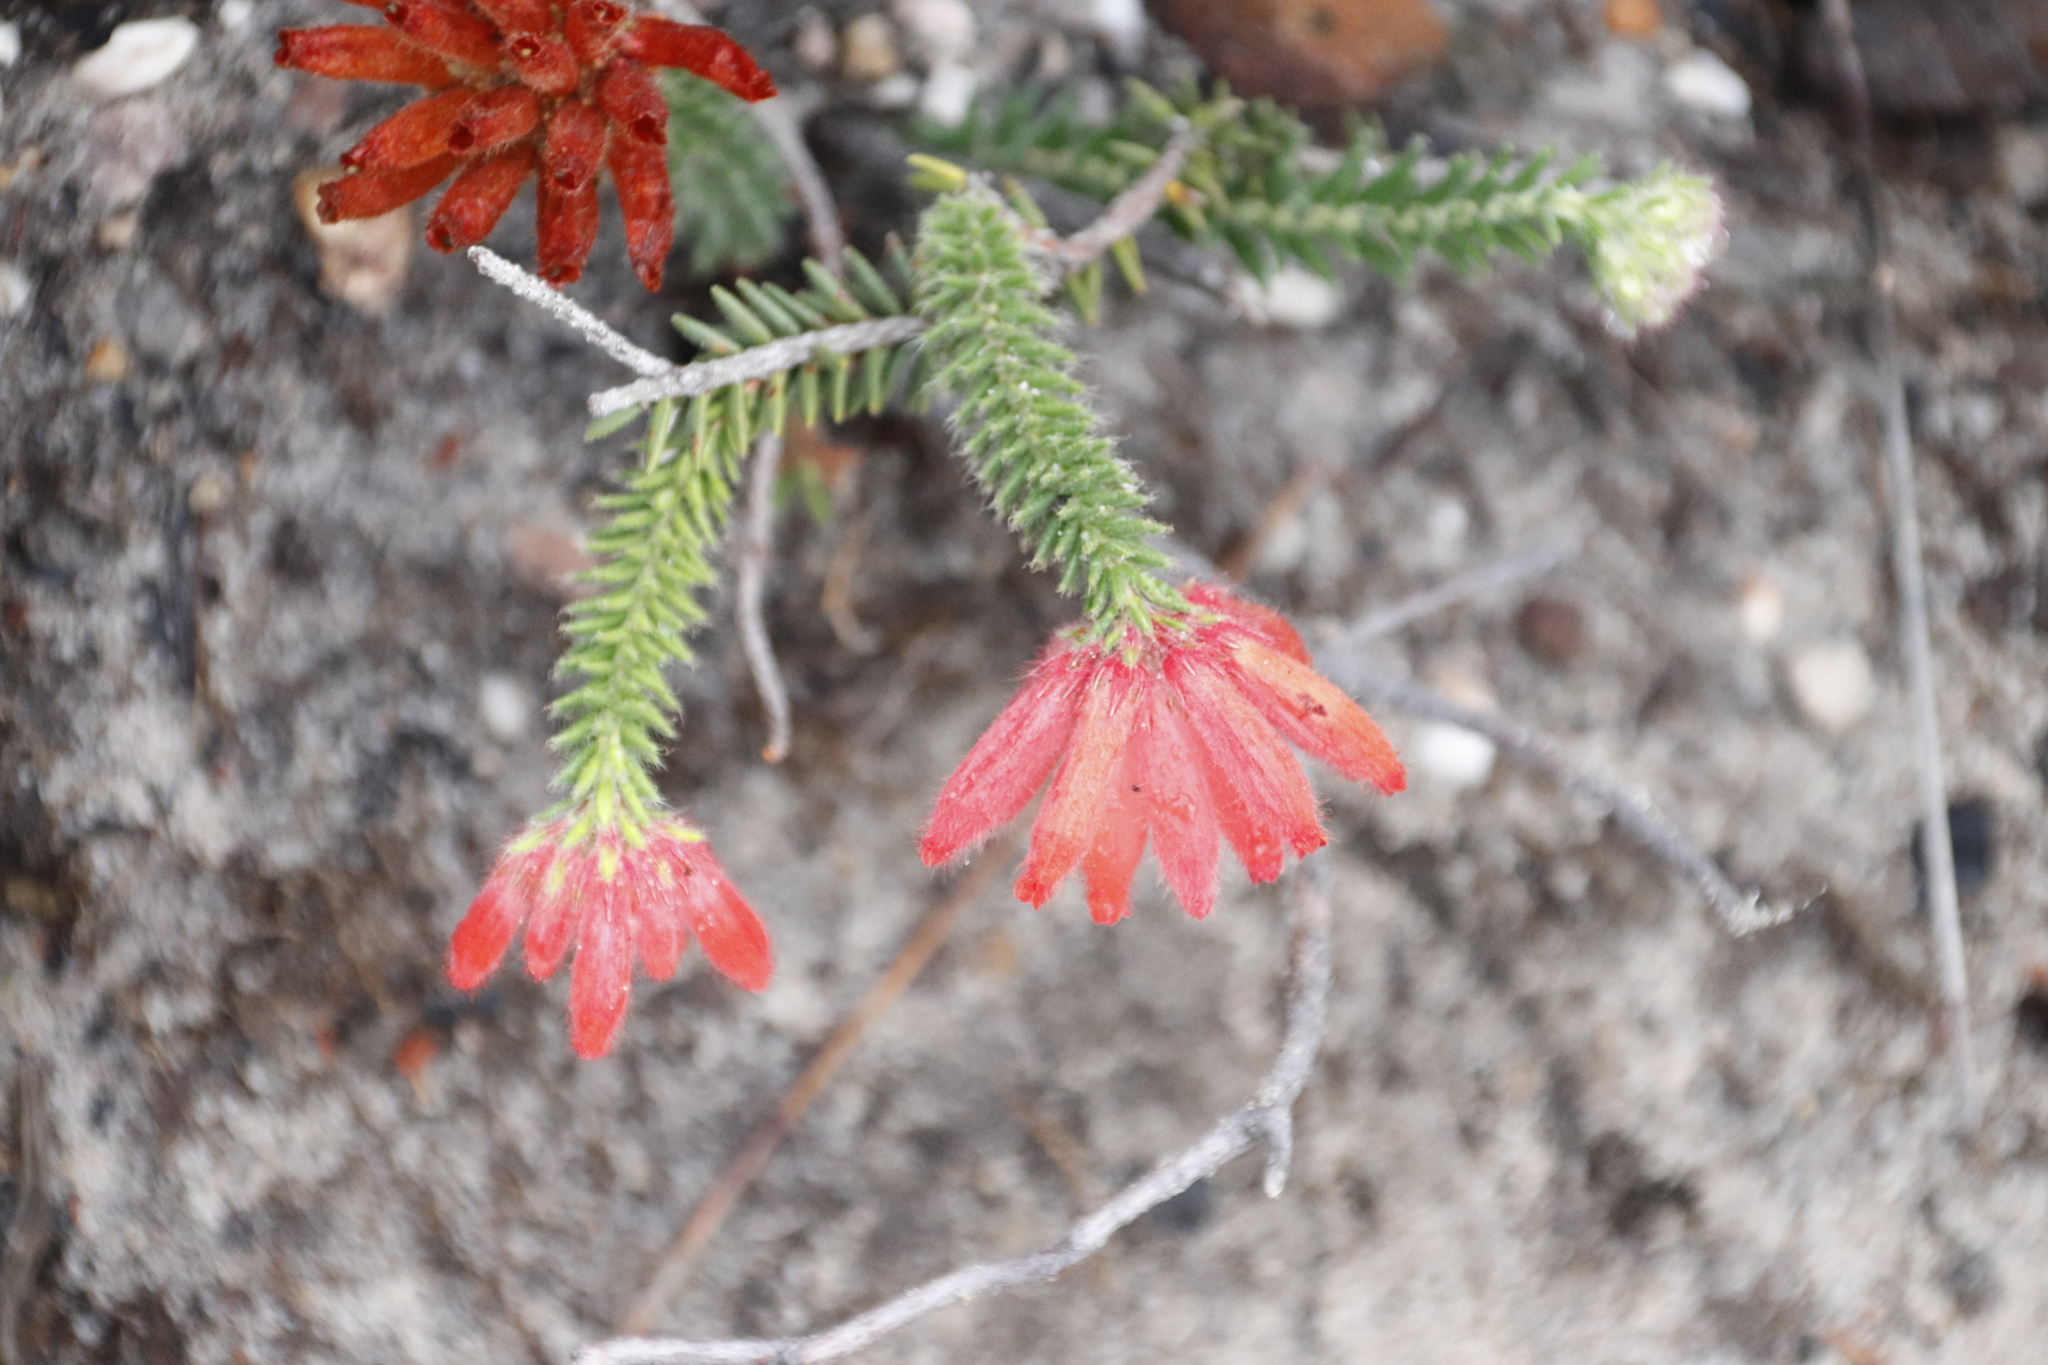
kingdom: Plantae
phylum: Tracheophyta
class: Magnoliopsida
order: Ericales
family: Ericaceae
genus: Erica
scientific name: Erica cerinthoides
